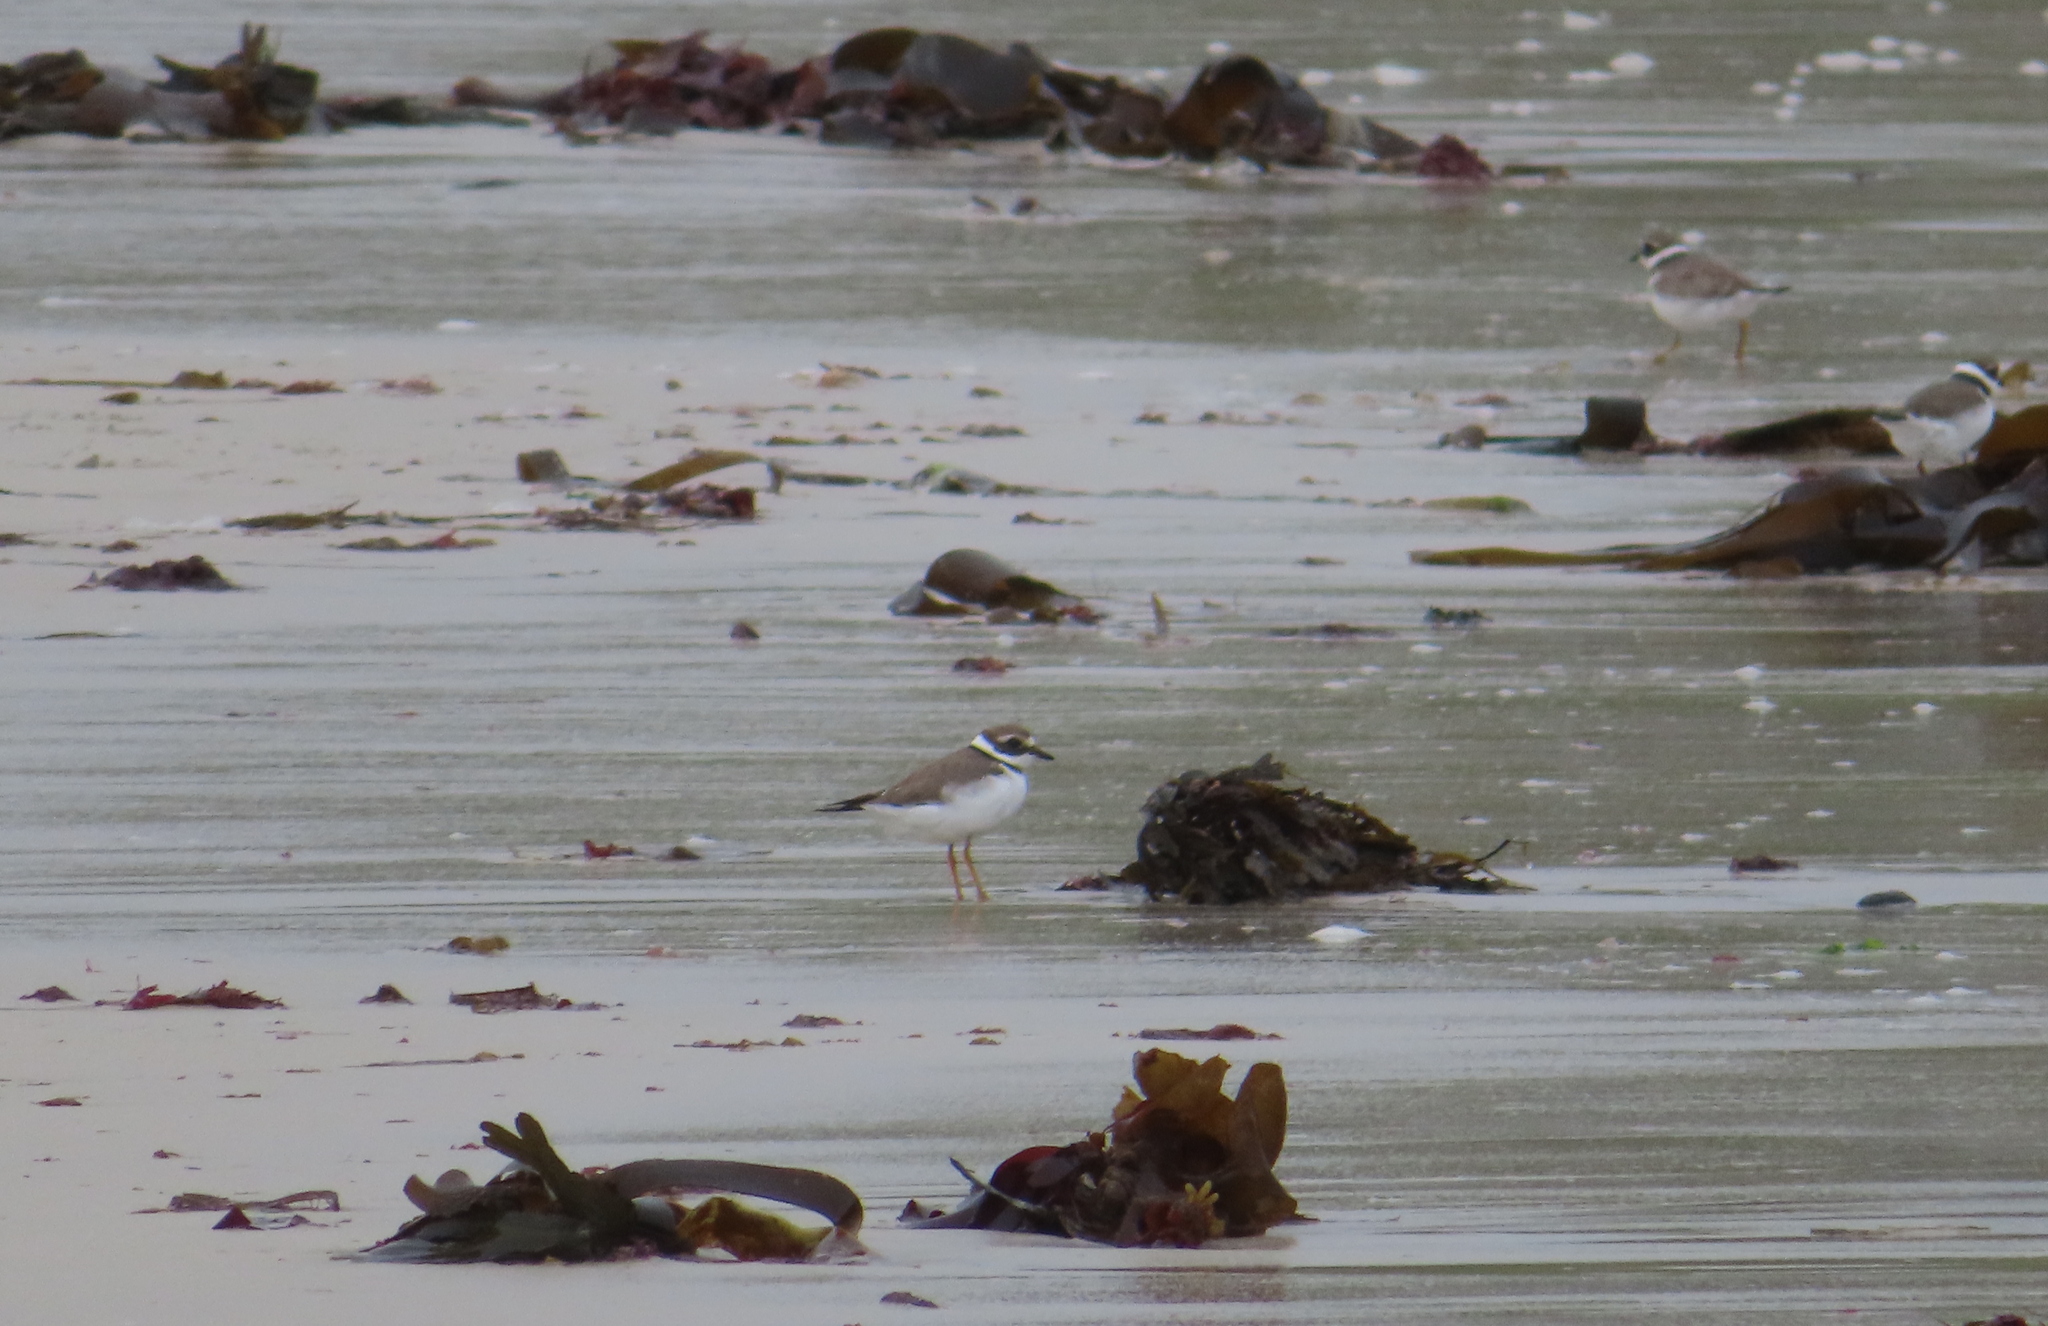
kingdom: Animalia
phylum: Chordata
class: Aves
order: Charadriiformes
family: Charadriidae
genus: Charadrius
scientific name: Charadrius hiaticula
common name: Common ringed plover
